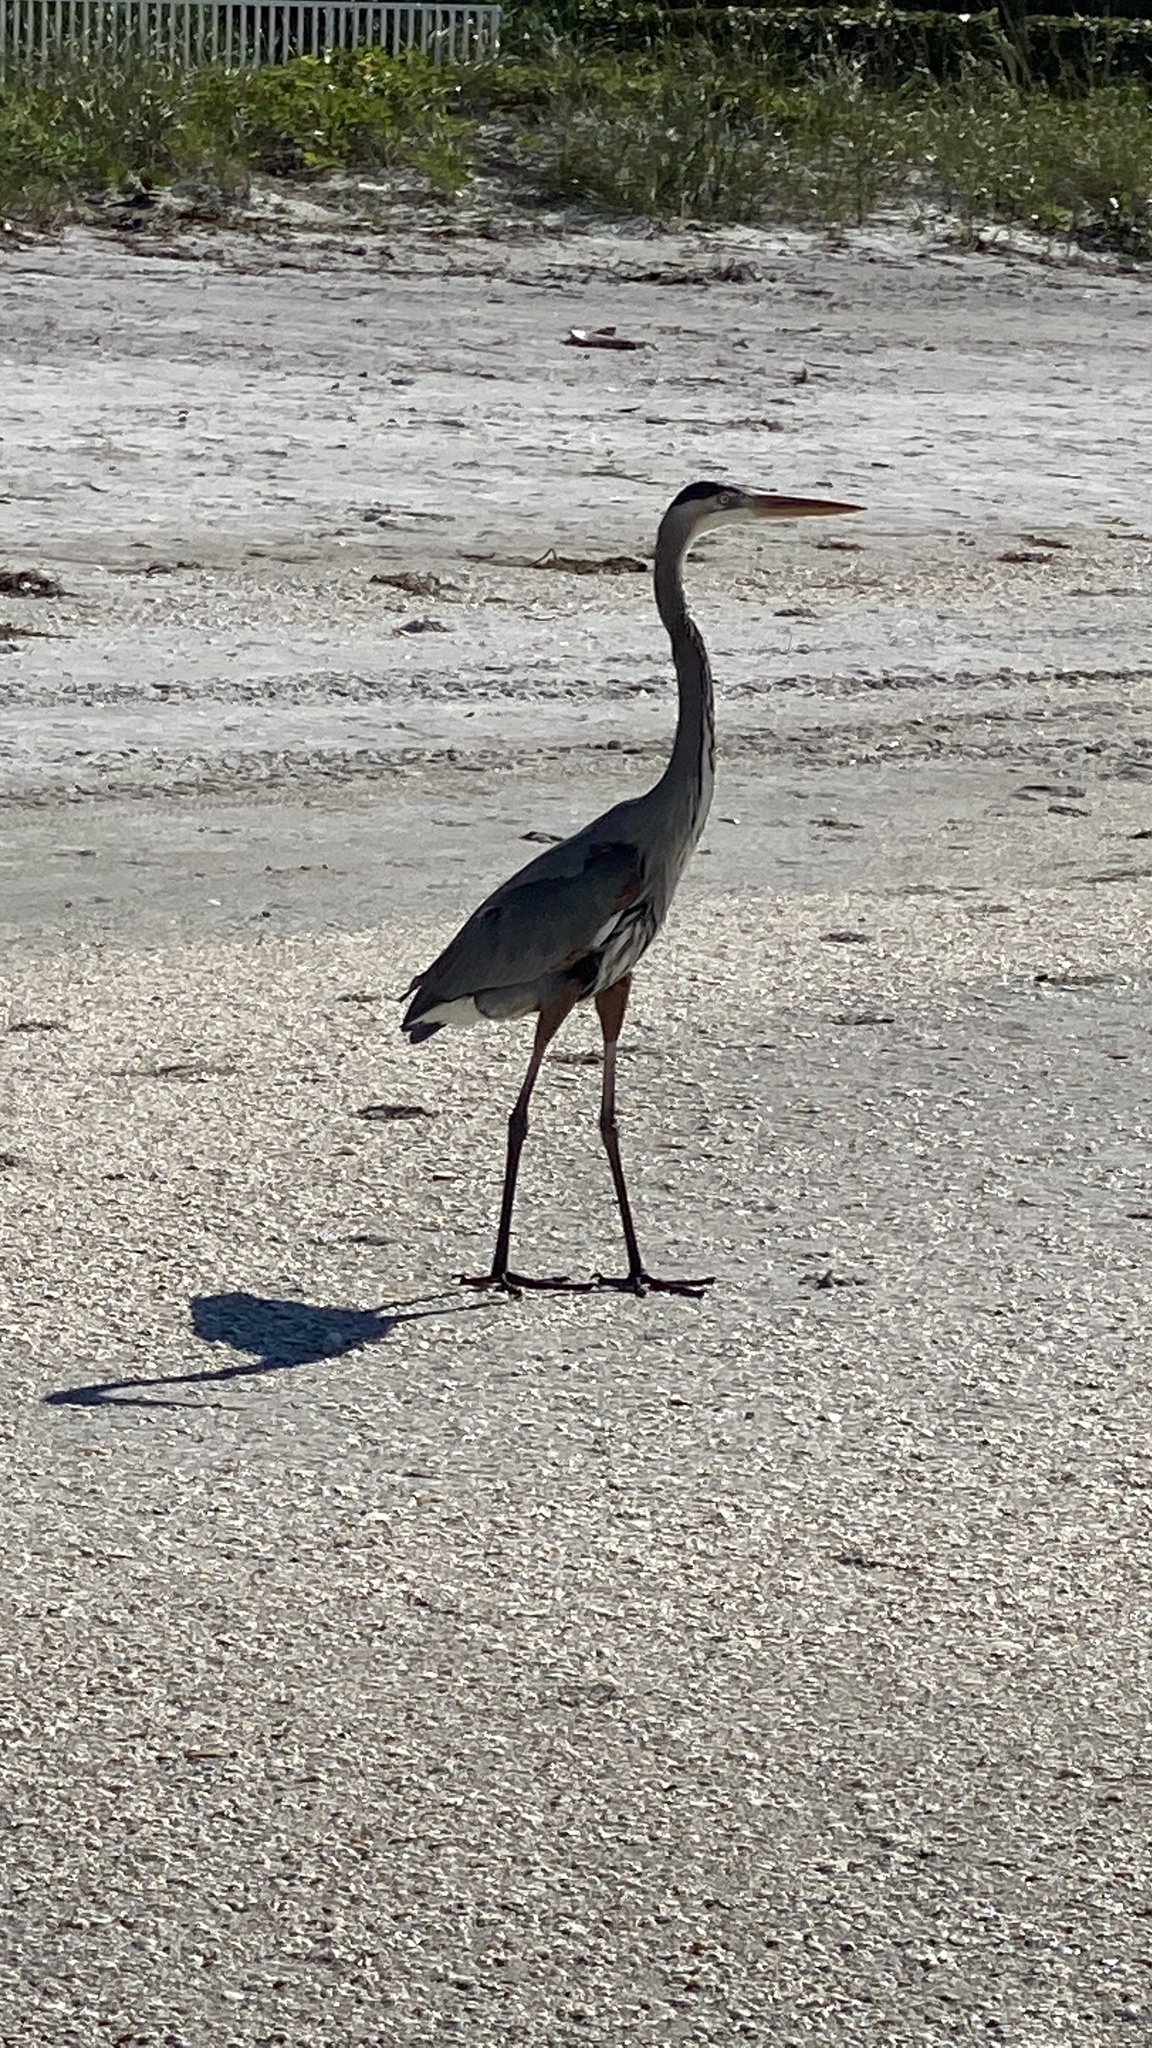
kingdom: Animalia
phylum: Chordata
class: Aves
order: Pelecaniformes
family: Ardeidae
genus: Ardea
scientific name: Ardea herodias
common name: Great blue heron
